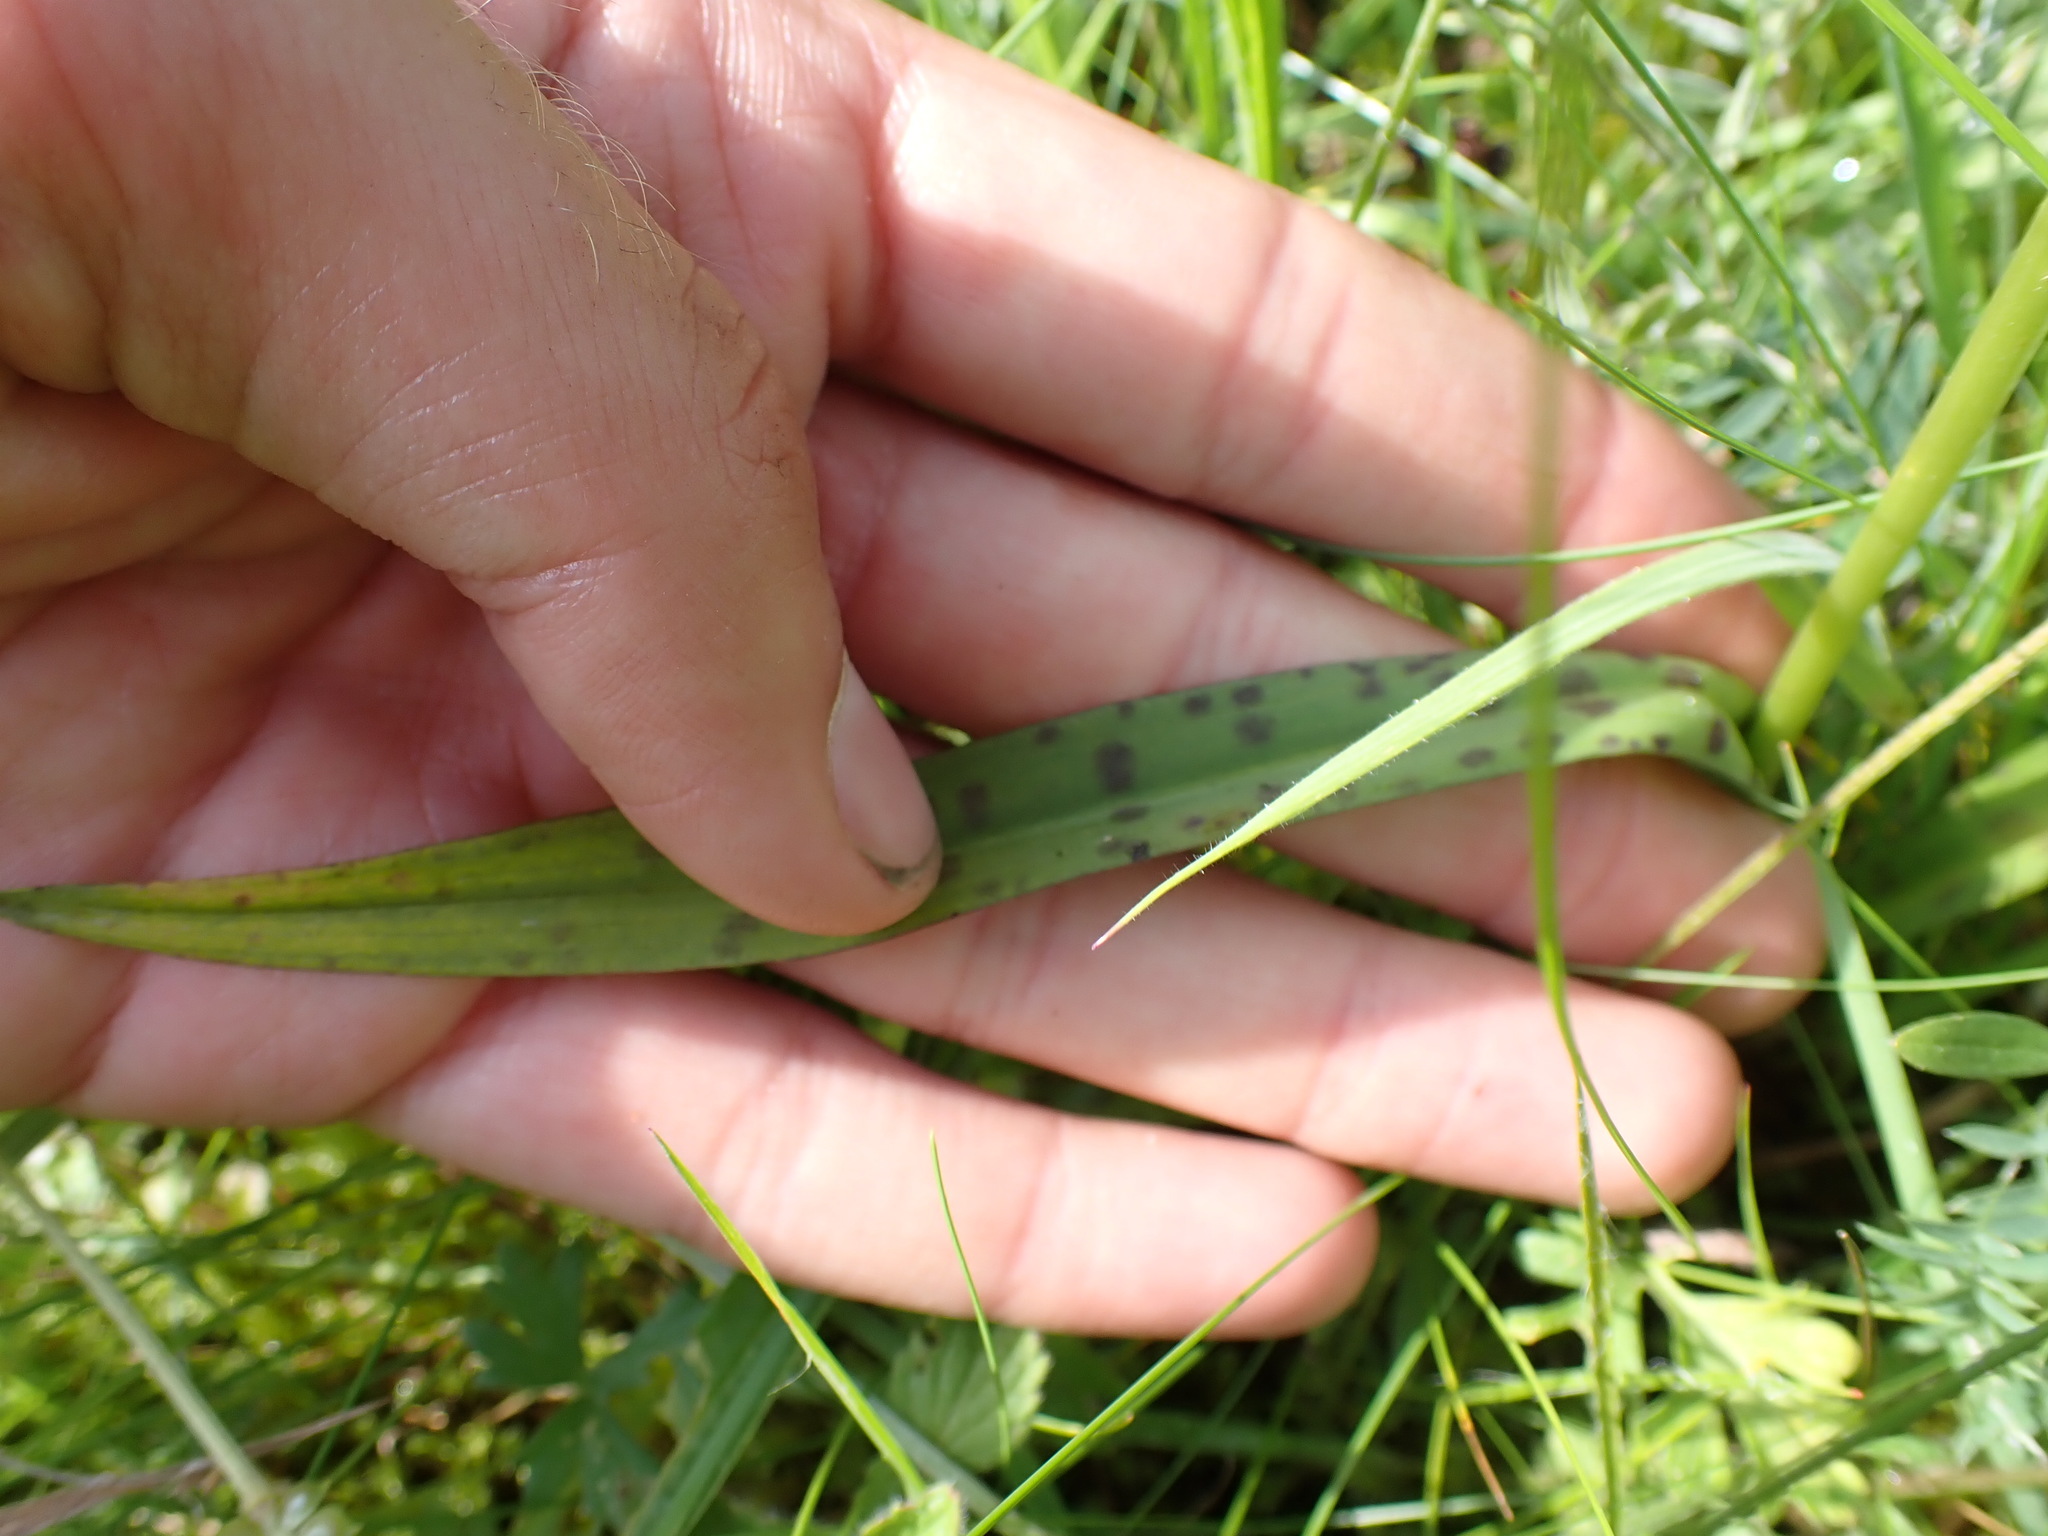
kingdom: Plantae
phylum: Tracheophyta
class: Liliopsida
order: Asparagales
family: Orchidaceae
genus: Dactylorhiza
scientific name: Dactylorhiza maculata
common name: Heath spotted-orchid
